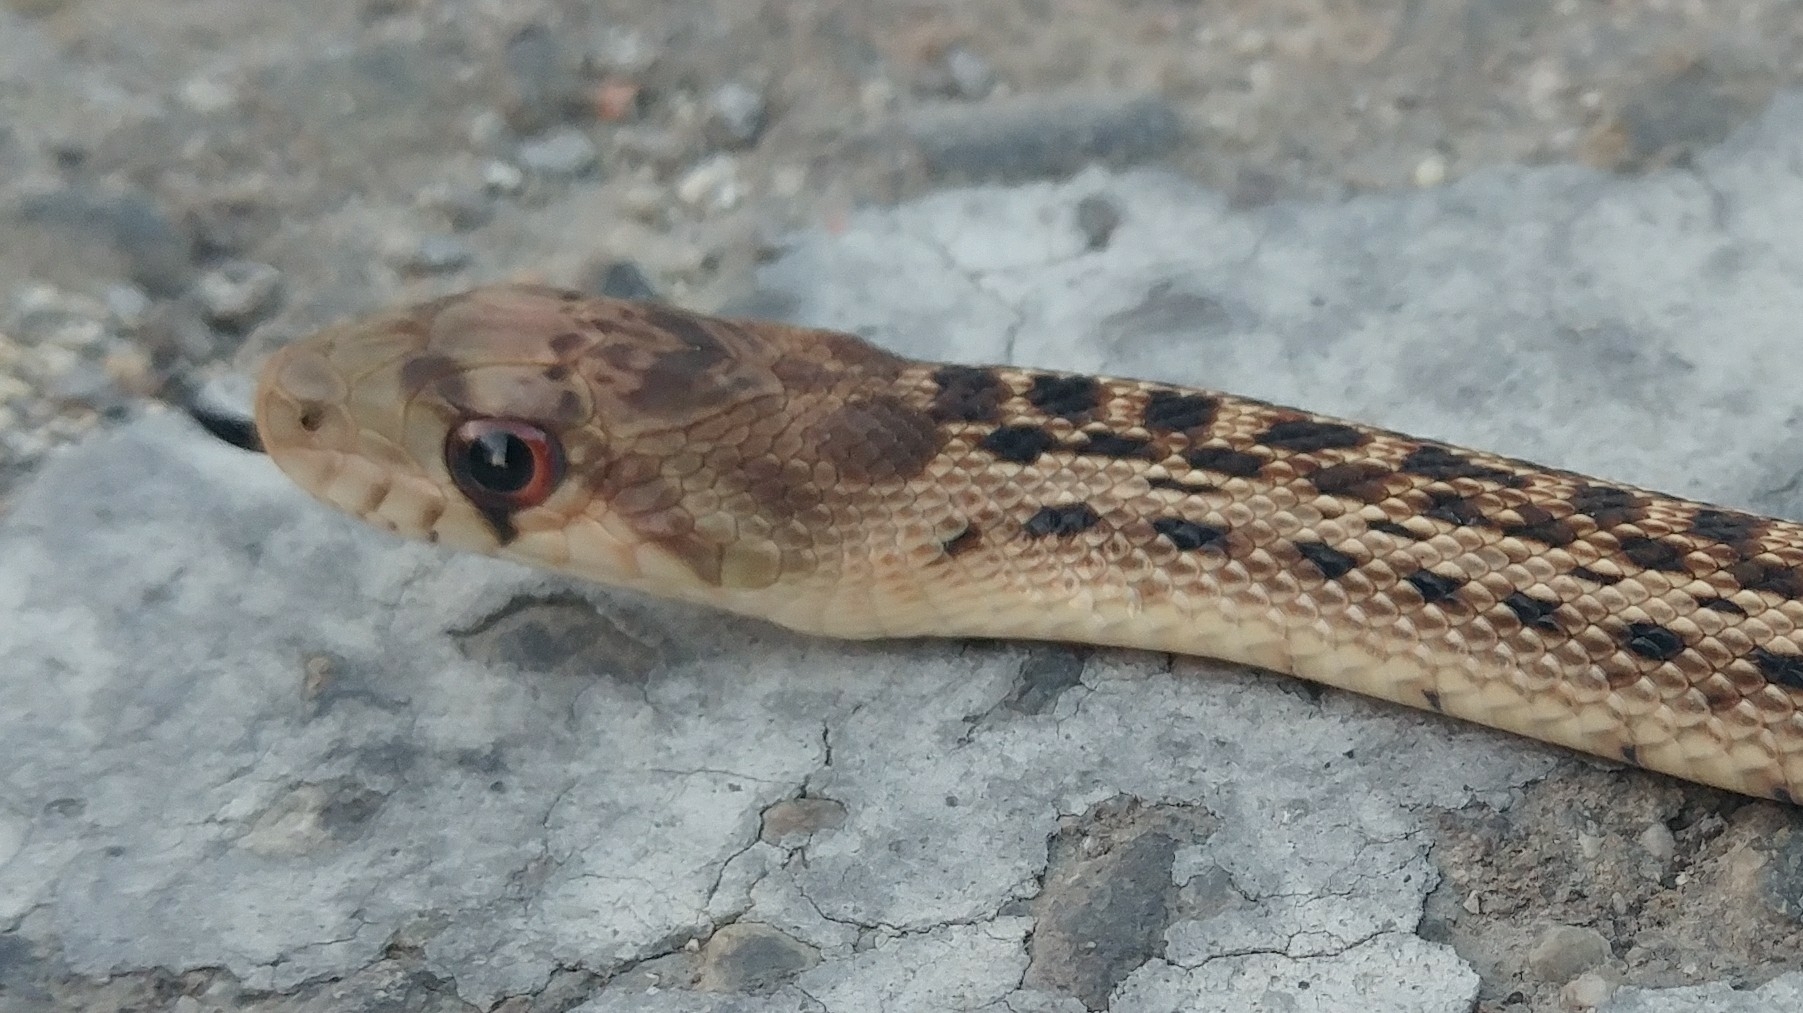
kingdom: Animalia
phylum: Chordata
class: Squamata
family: Colubridae
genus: Pituophis
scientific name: Pituophis catenifer
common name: Gopher snake
